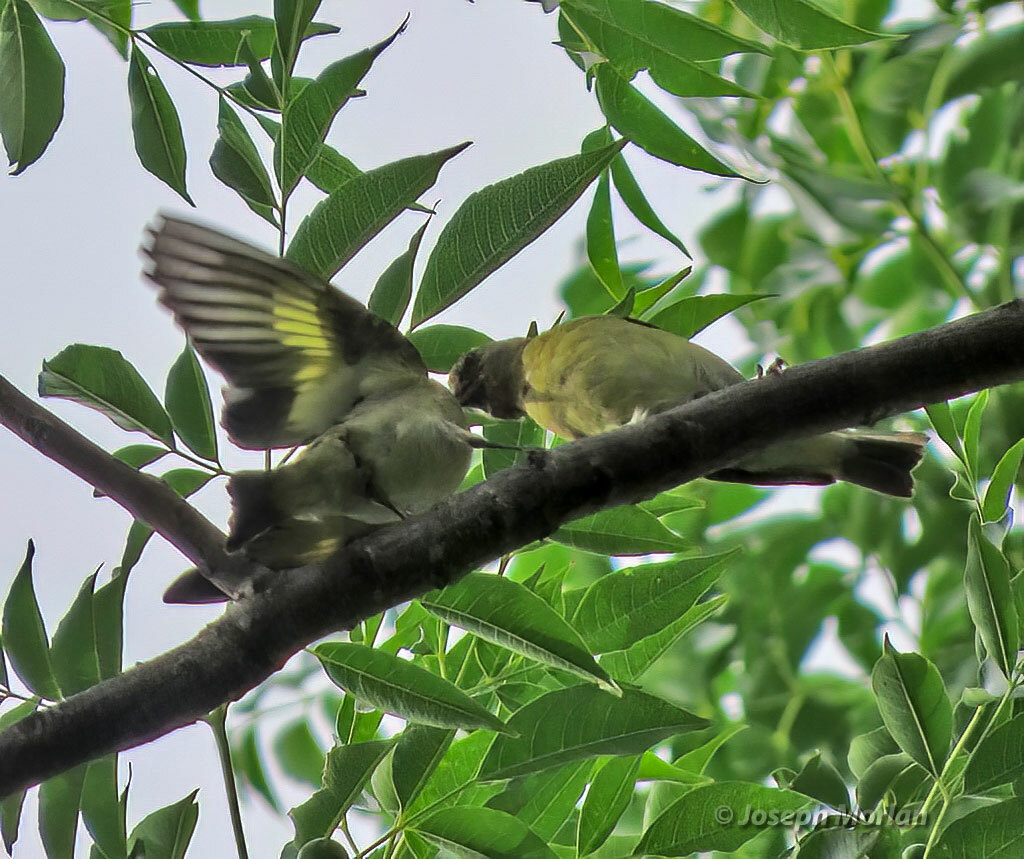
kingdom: Animalia
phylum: Chordata
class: Aves
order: Passeriformes
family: Fringillidae
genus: Spinus
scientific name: Spinus magellanicus
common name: Hooded siskin
